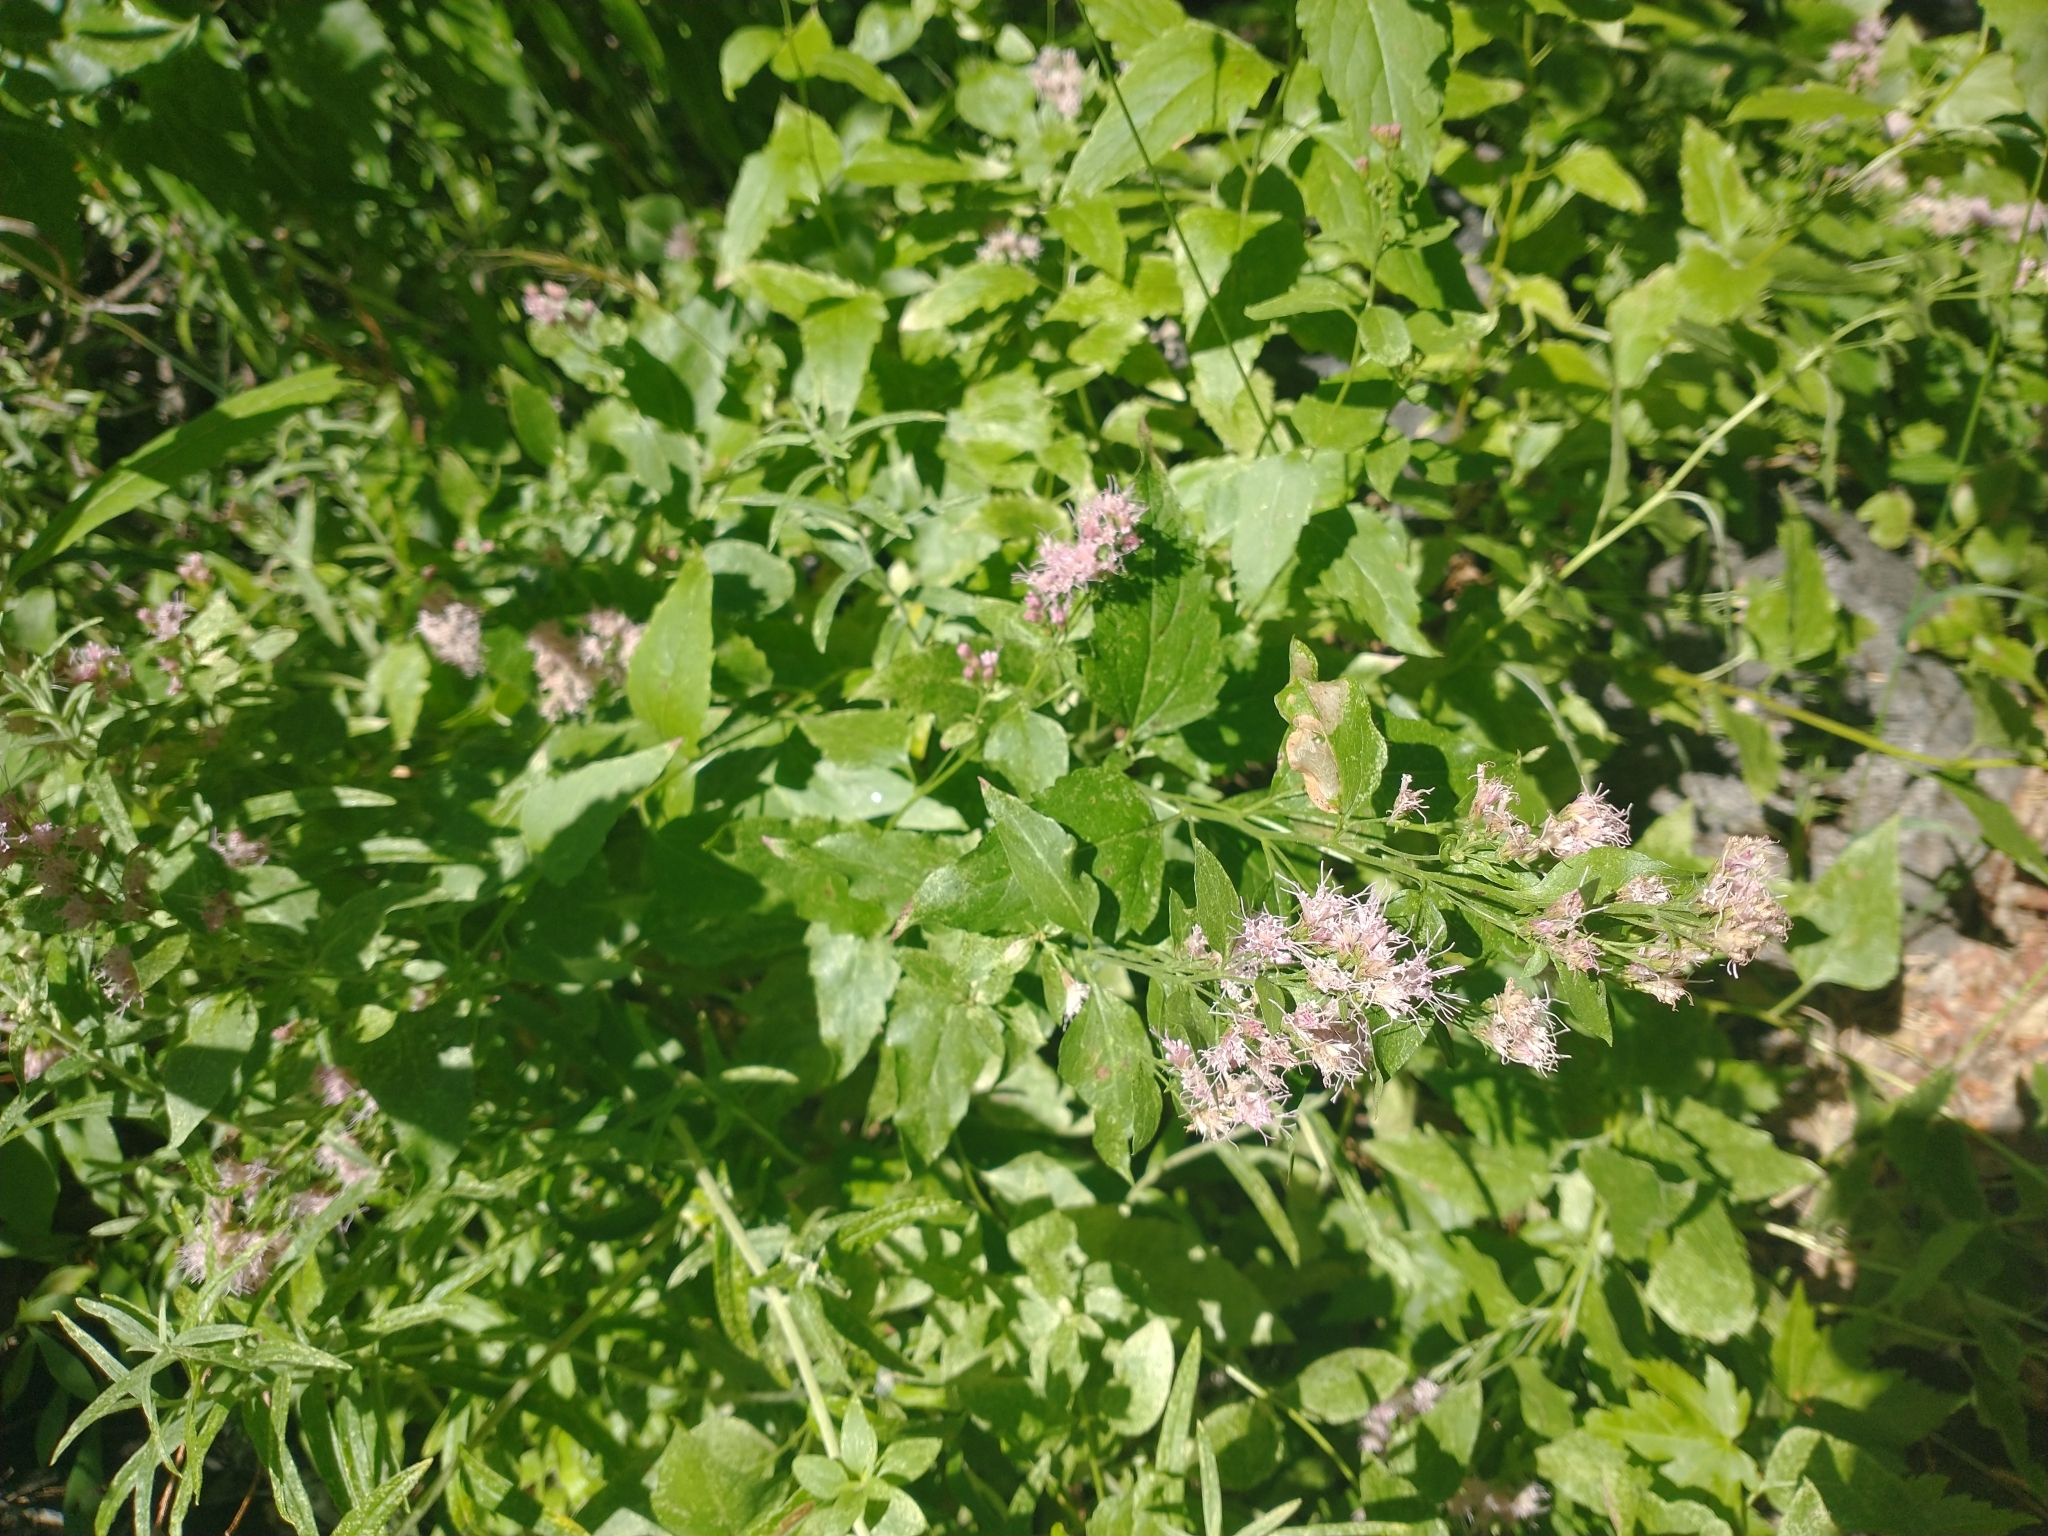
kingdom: Plantae
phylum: Tracheophyta
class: Magnoliopsida
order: Asterales
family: Asteraceae
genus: Ageratina
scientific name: Ageratina occidentalis
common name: Western snakeroot
